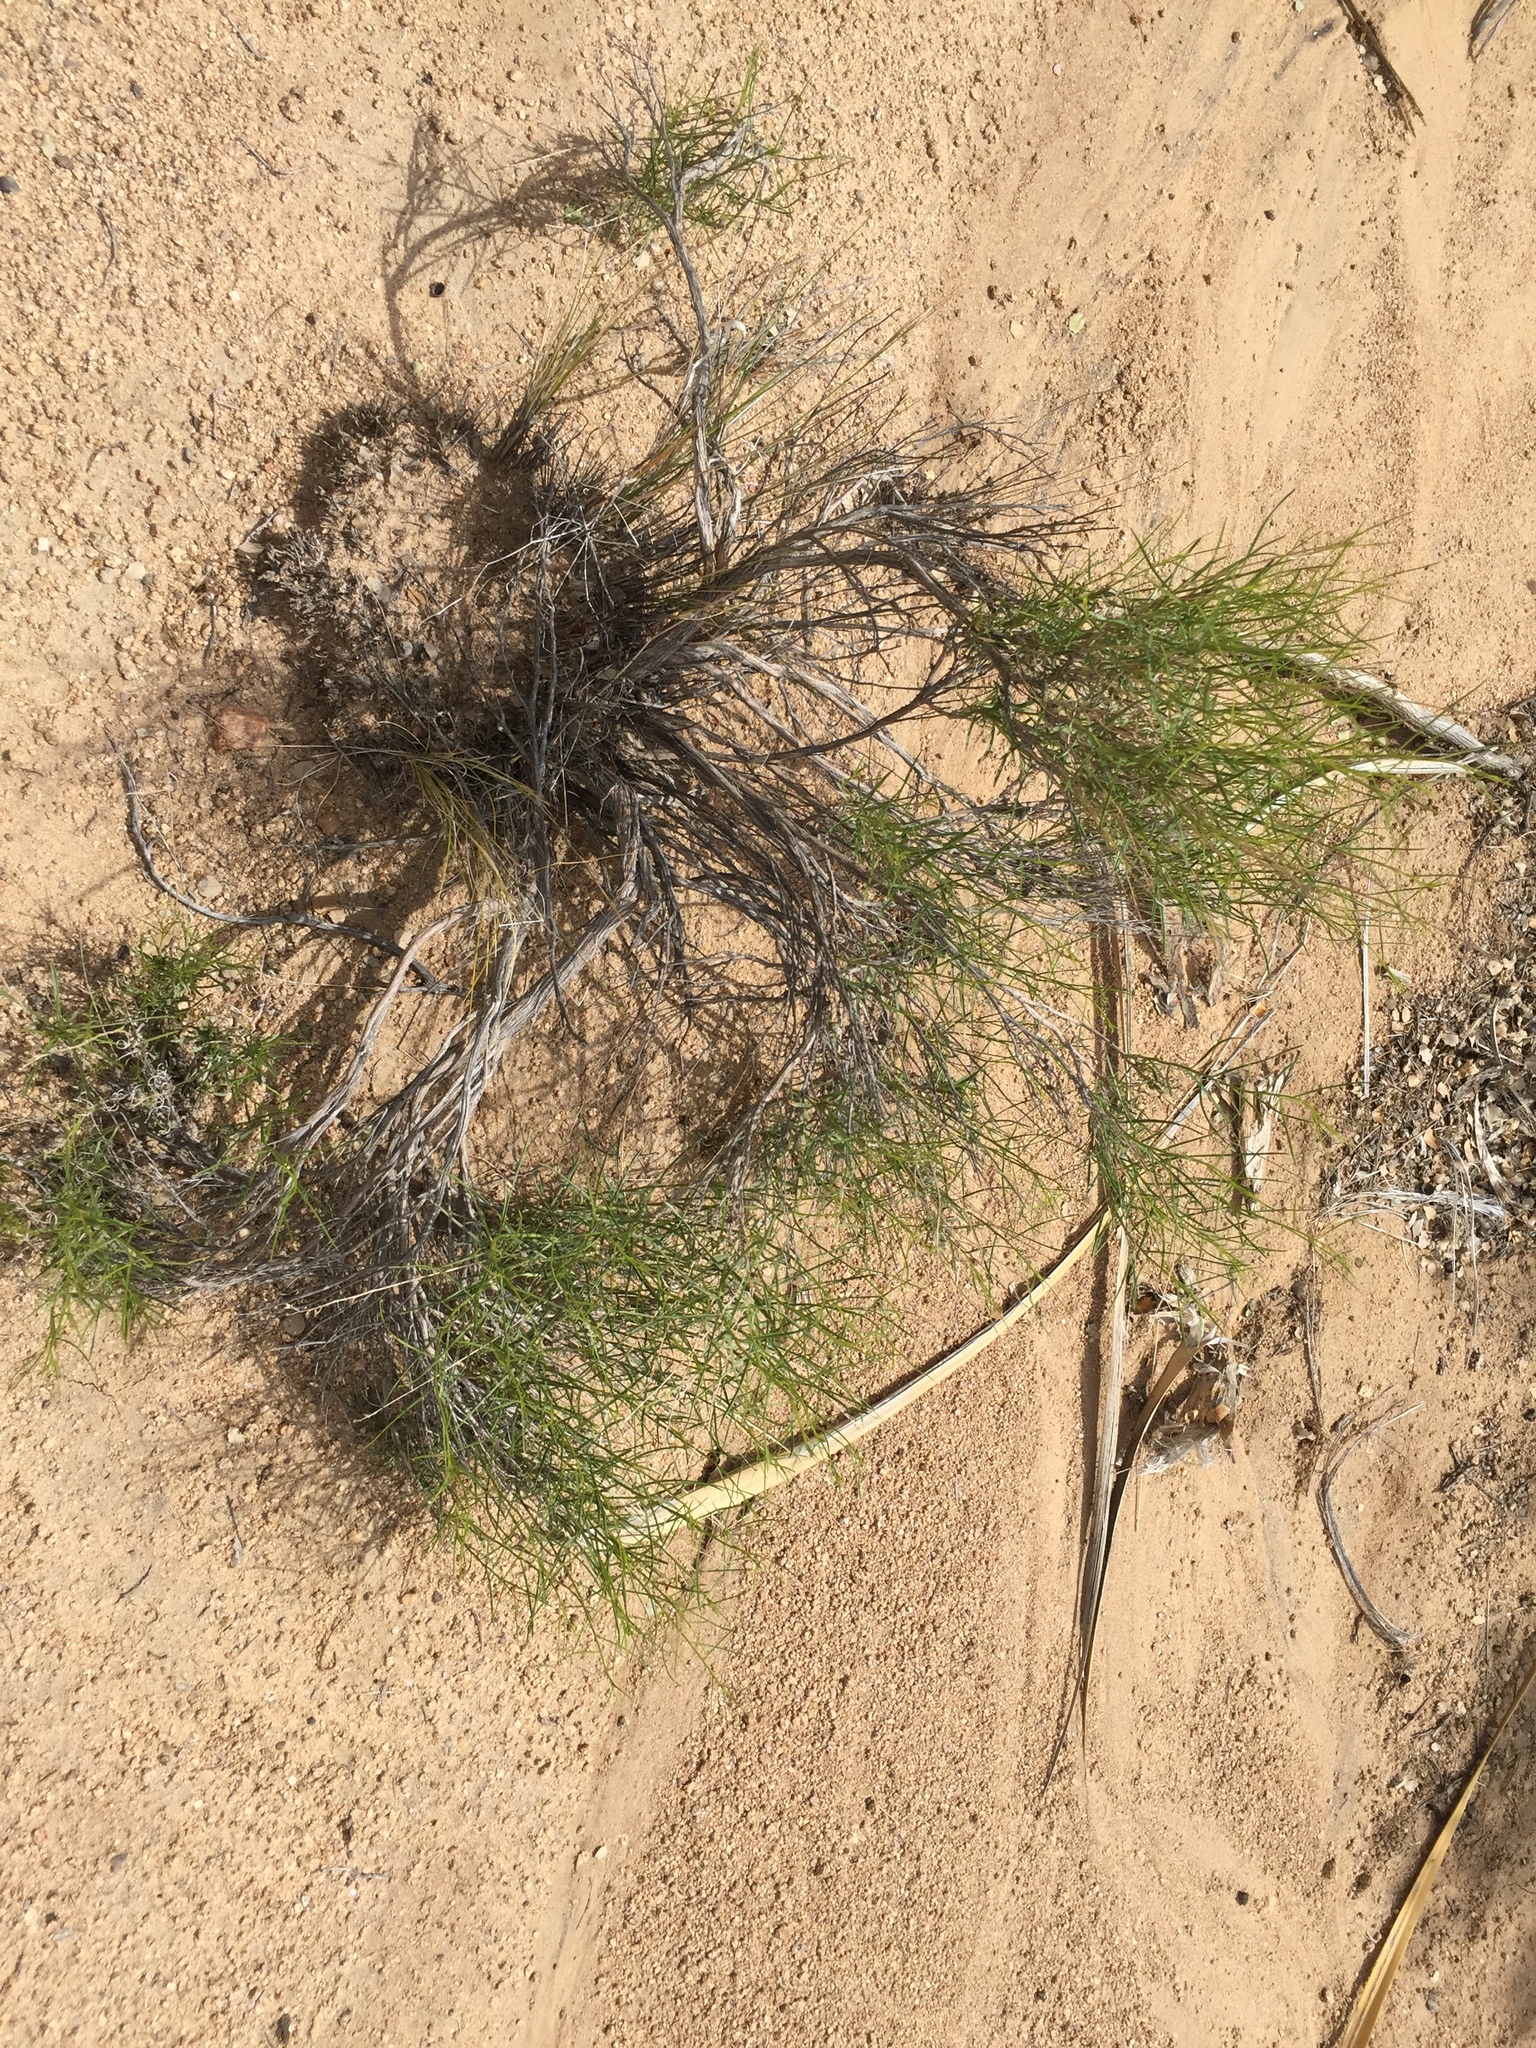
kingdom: Plantae
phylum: Tracheophyta
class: Magnoliopsida
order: Asterales
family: Asteraceae
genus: Ambrosia
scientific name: Ambrosia salsola
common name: Burrobrush
